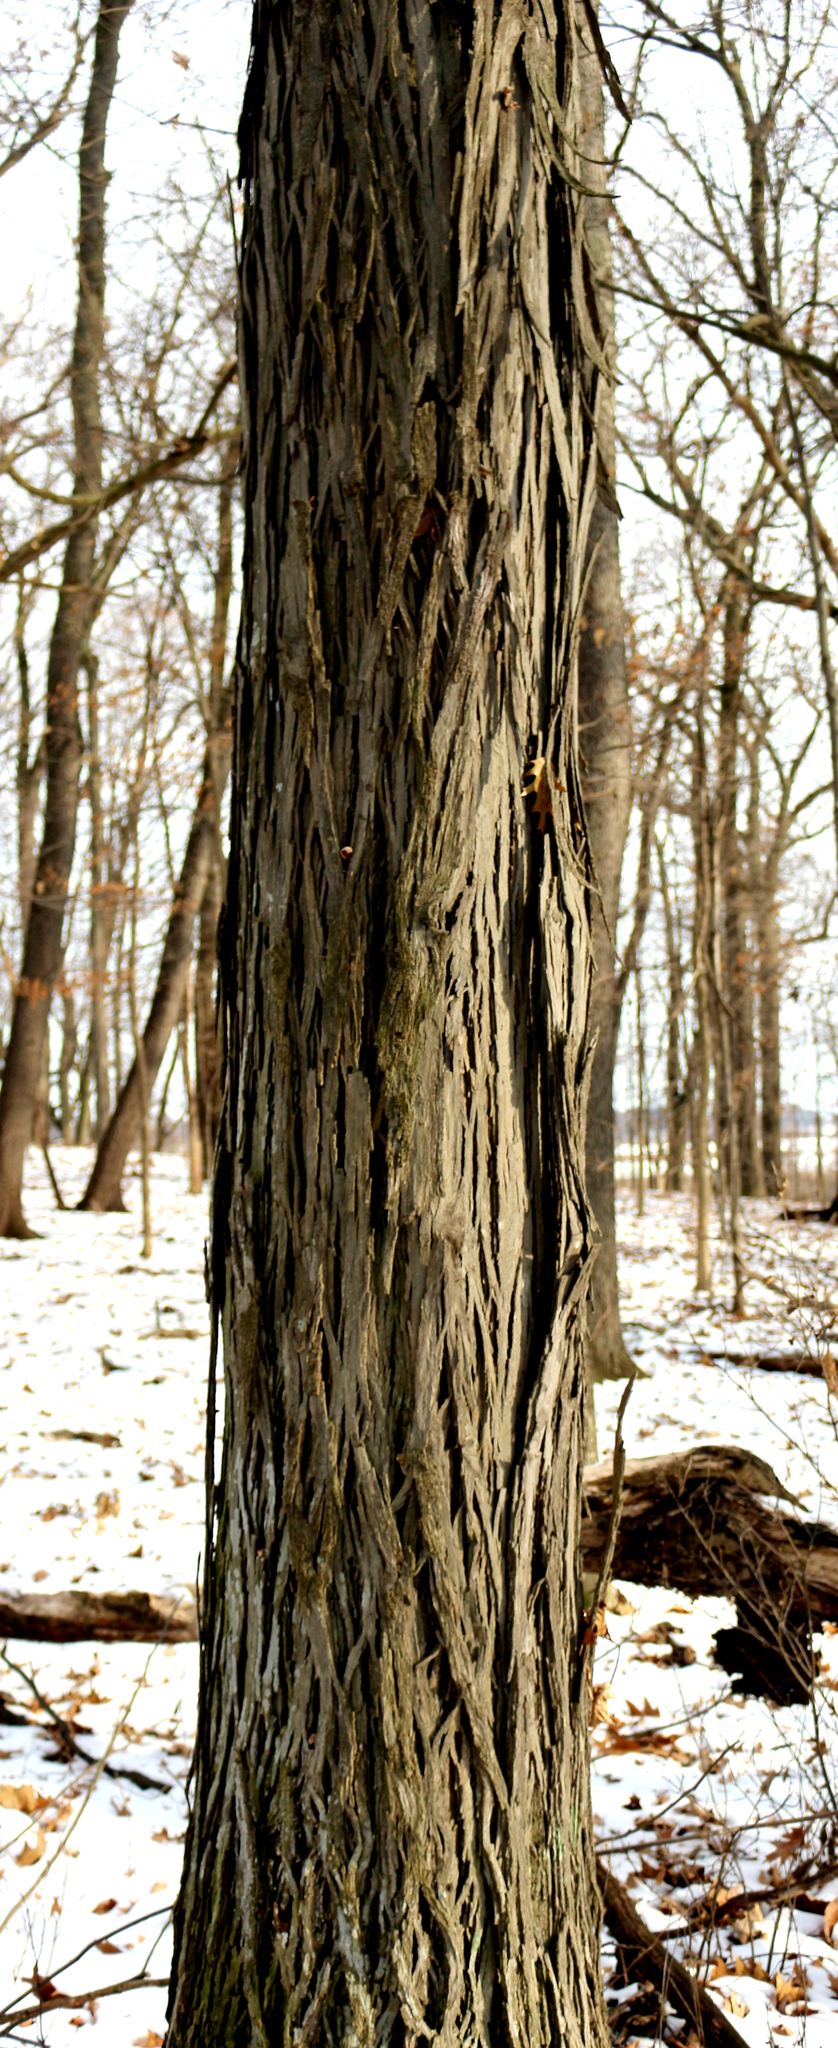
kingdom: Plantae
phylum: Tracheophyta
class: Magnoliopsida
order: Fagales
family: Juglandaceae
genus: Carya
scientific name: Carya ovata
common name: Shagbark hickory
